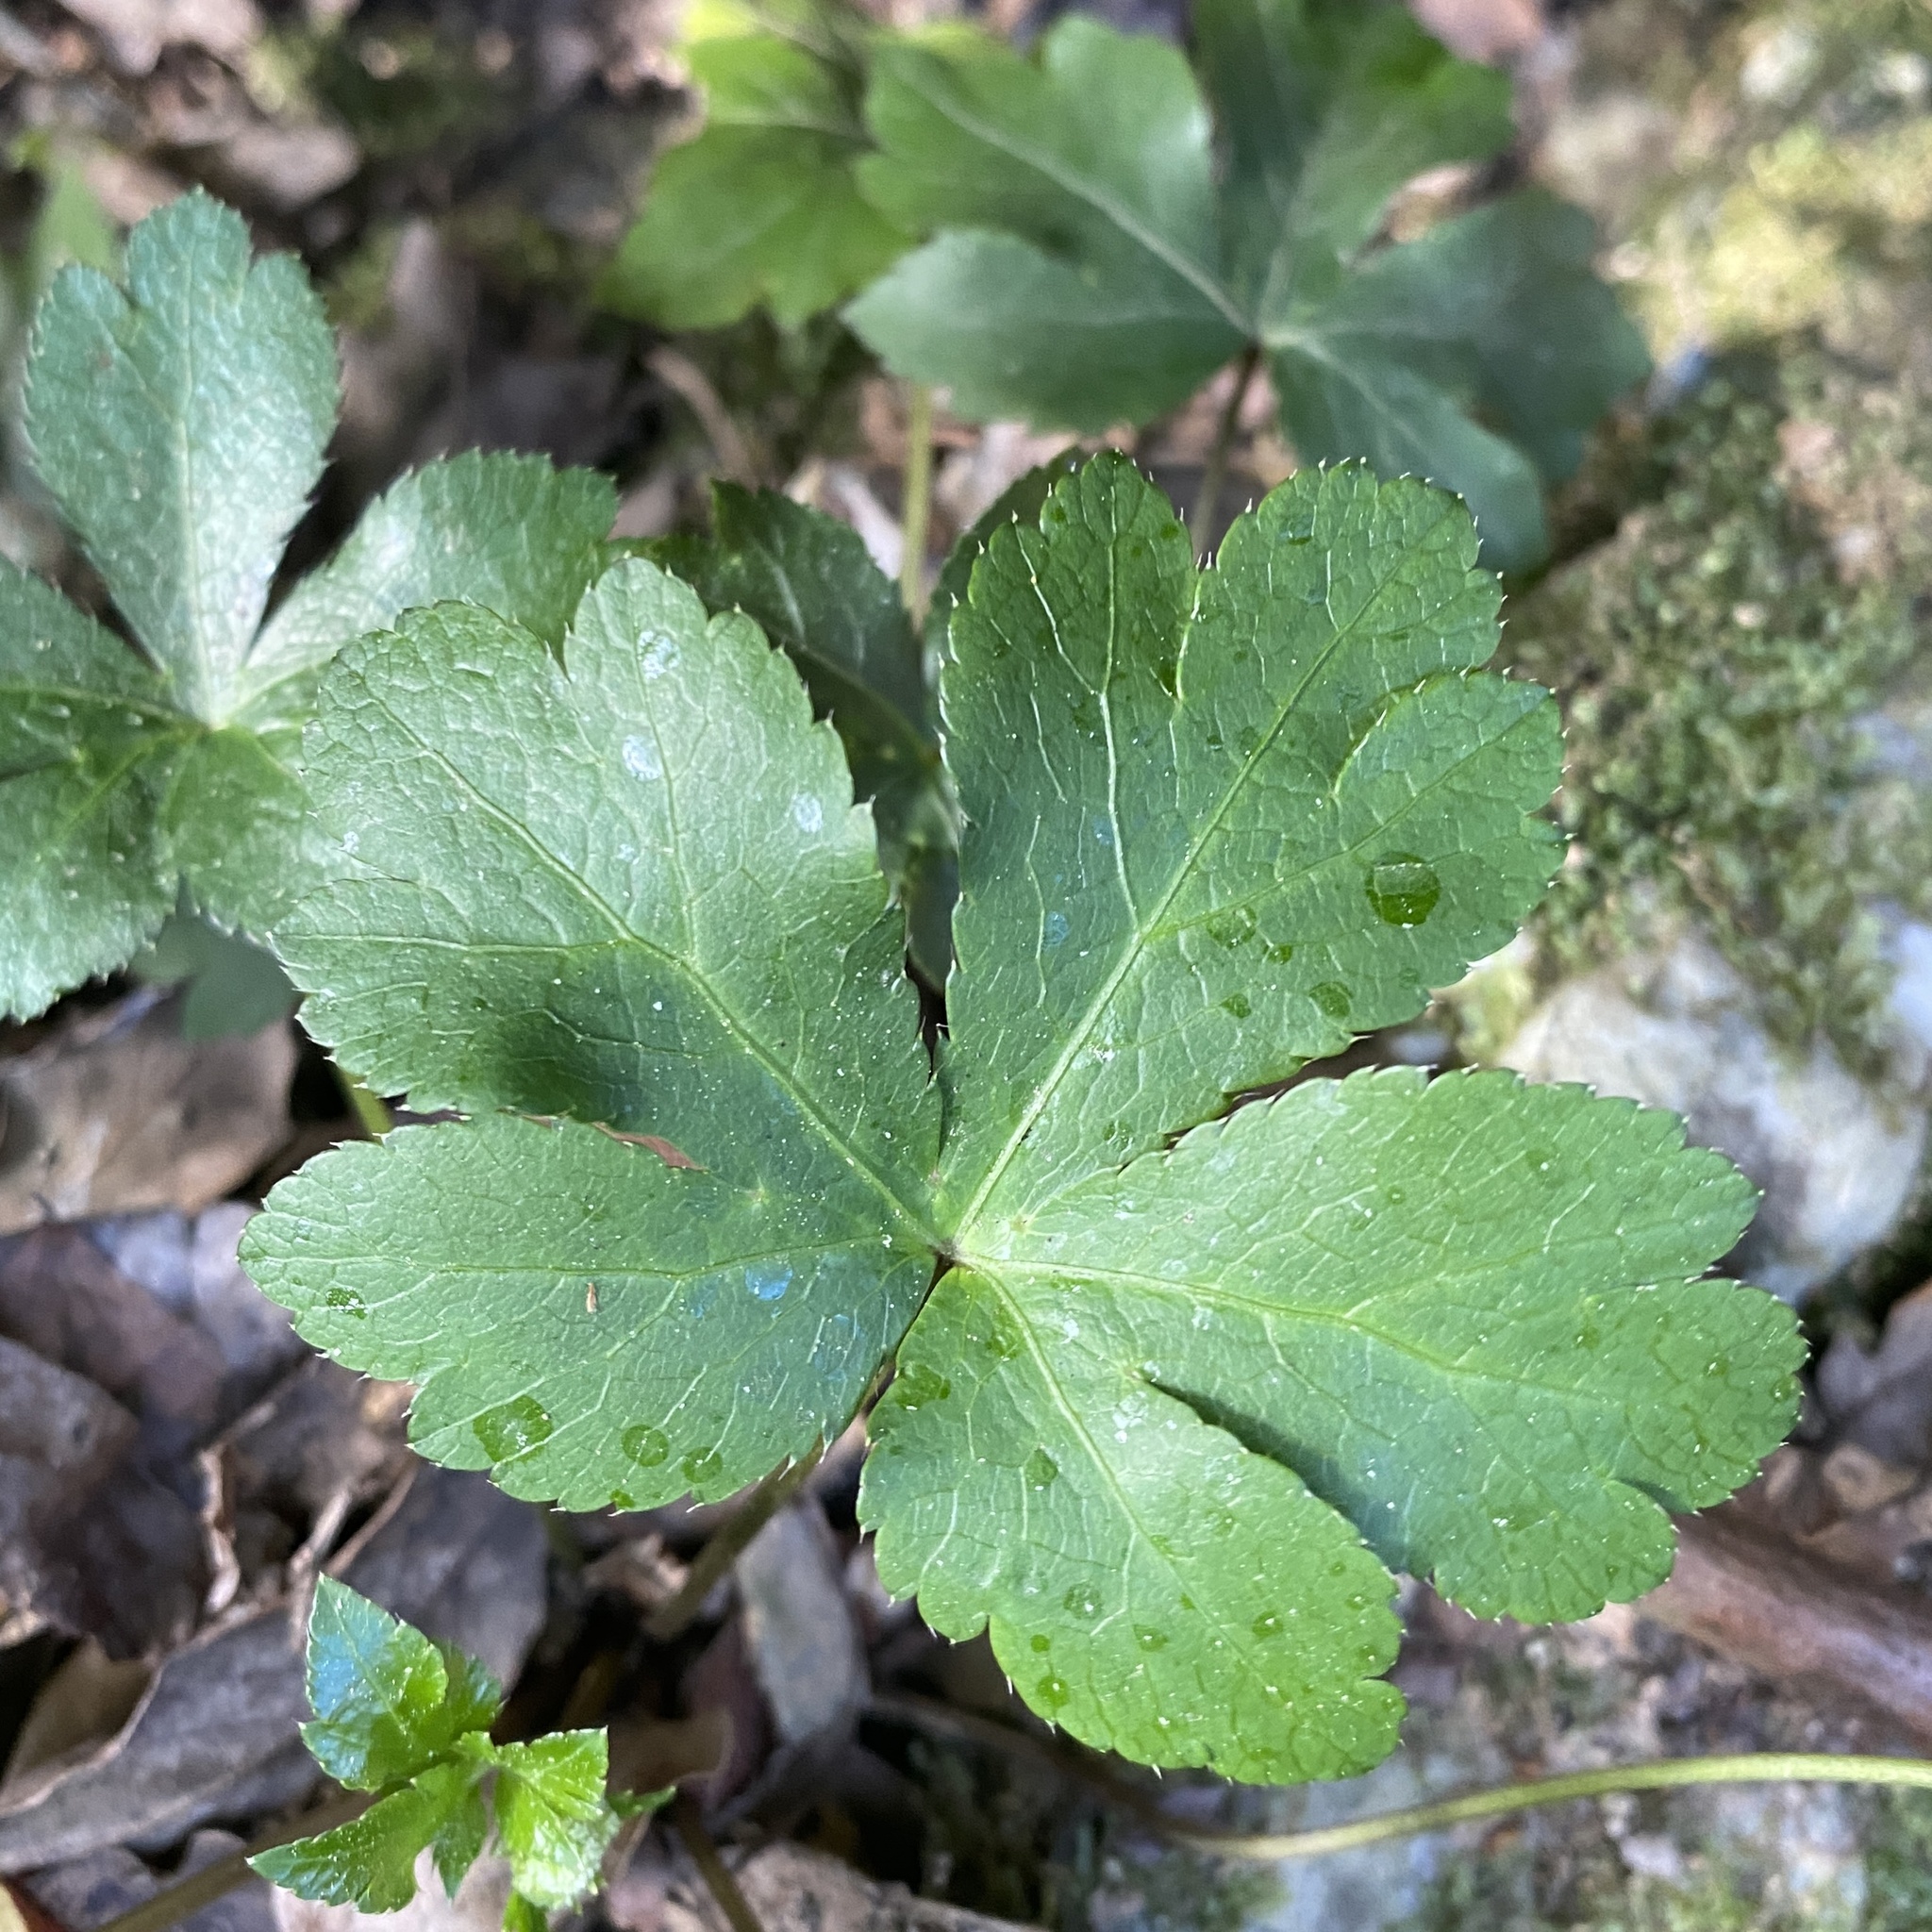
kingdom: Plantae
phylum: Tracheophyta
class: Magnoliopsida
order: Apiales
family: Apiaceae
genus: Sanicula
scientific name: Sanicula europaea
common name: Sanicle
